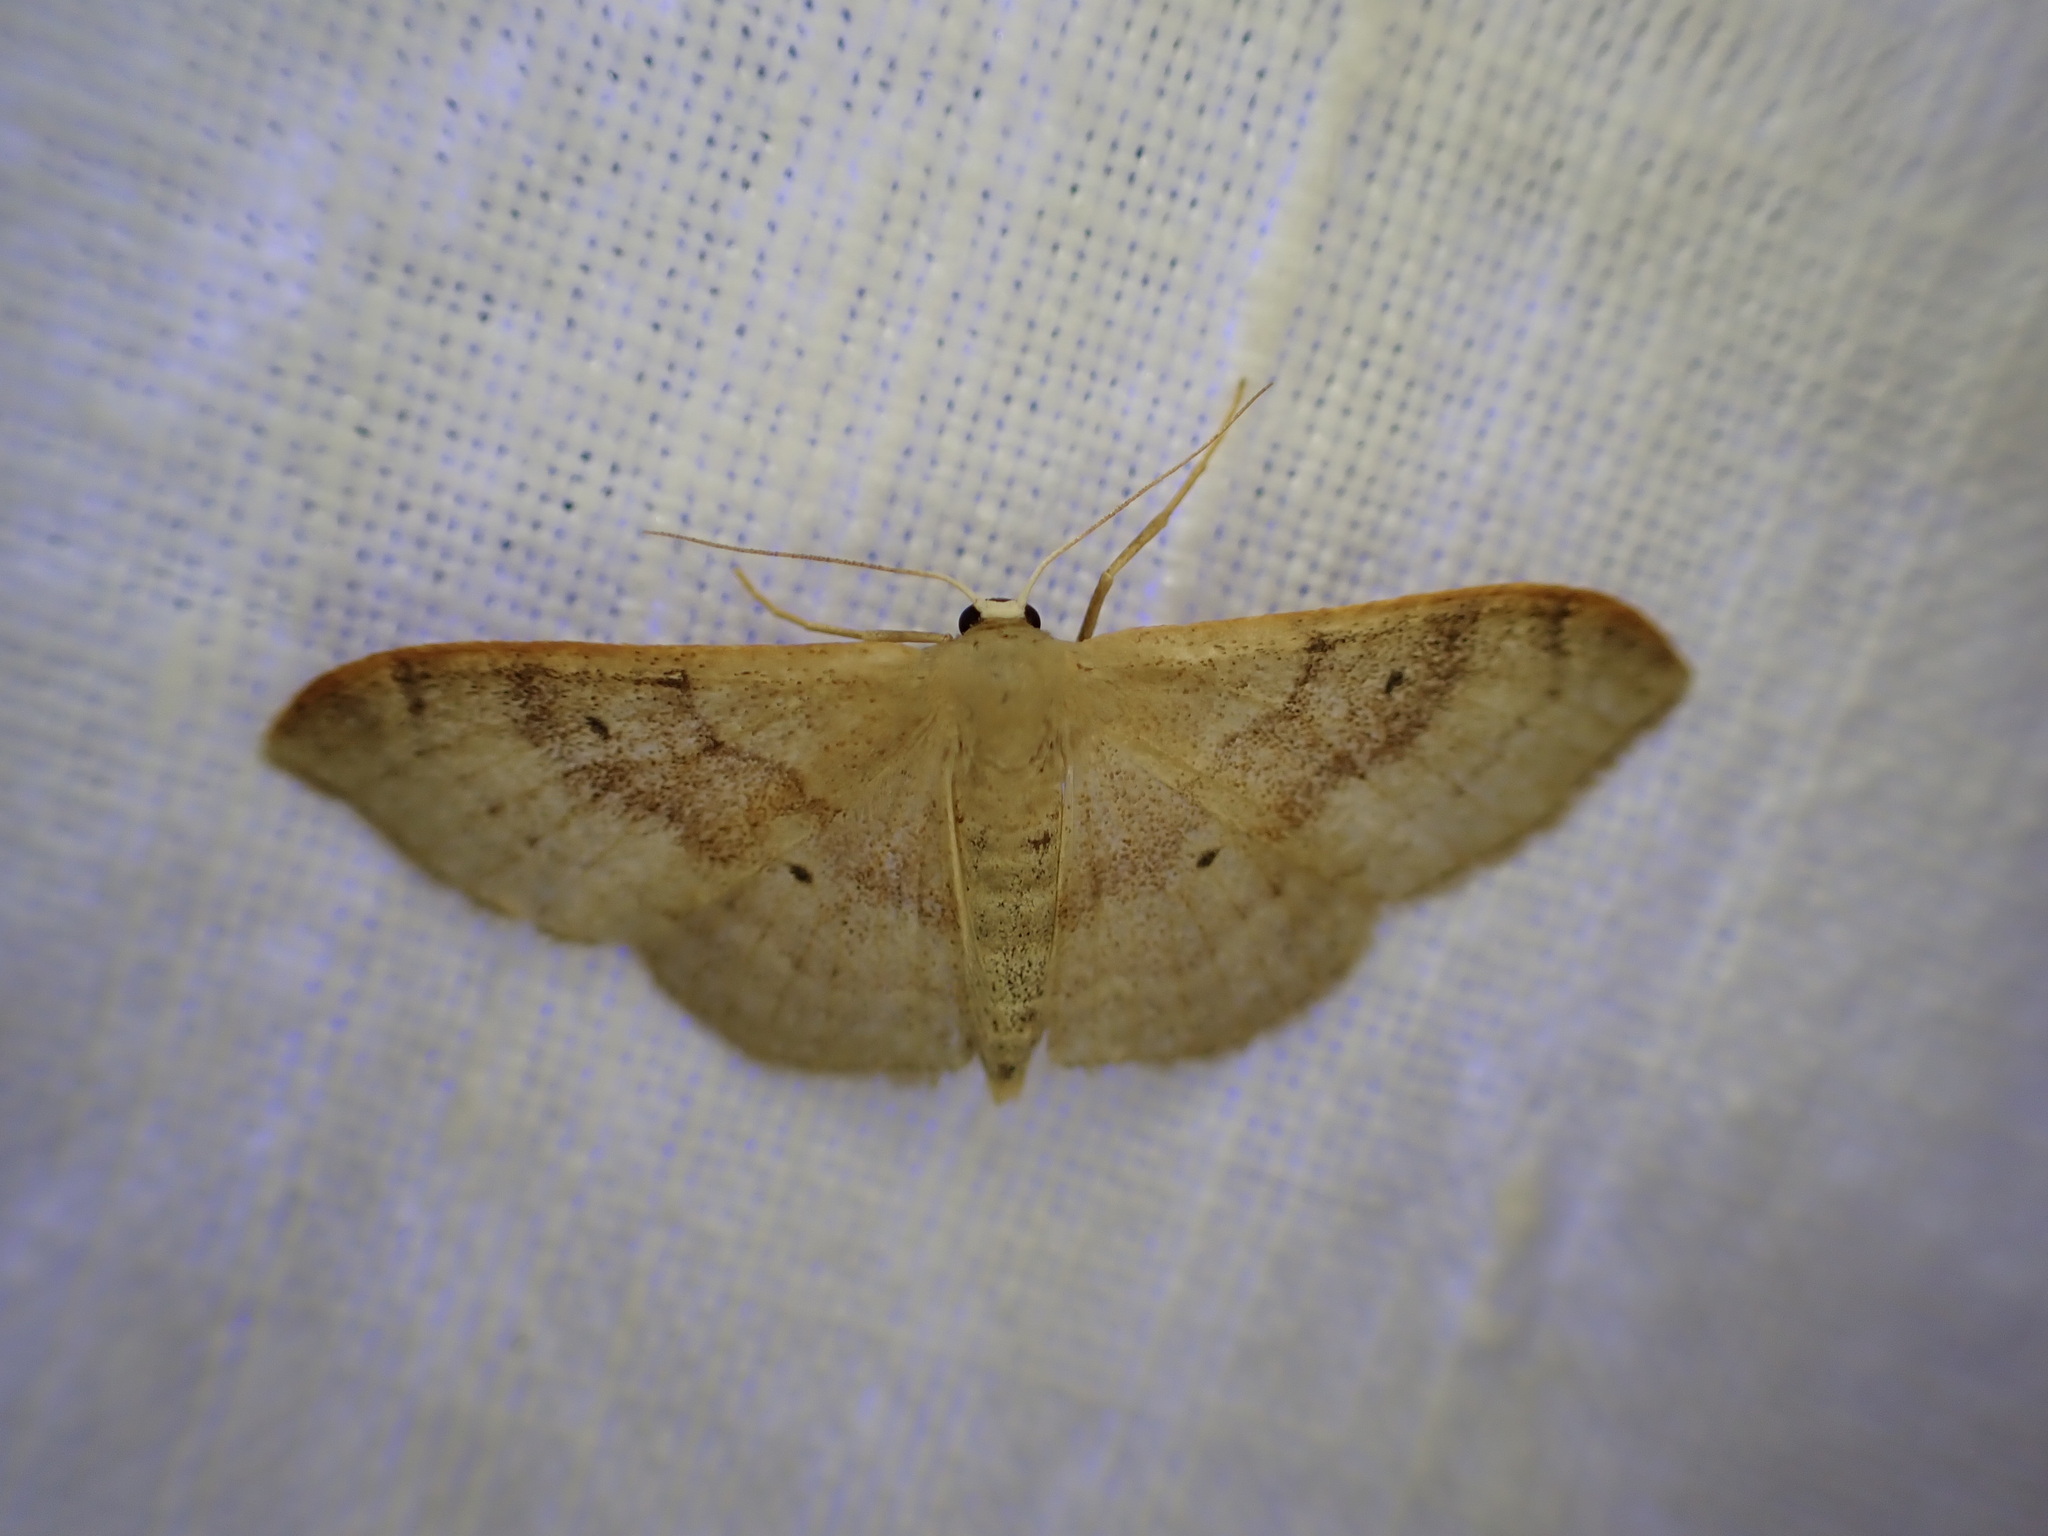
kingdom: Animalia
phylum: Arthropoda
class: Insecta
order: Lepidoptera
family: Geometridae
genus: Idaea
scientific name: Idaea degeneraria
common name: Portland ribbon wave
